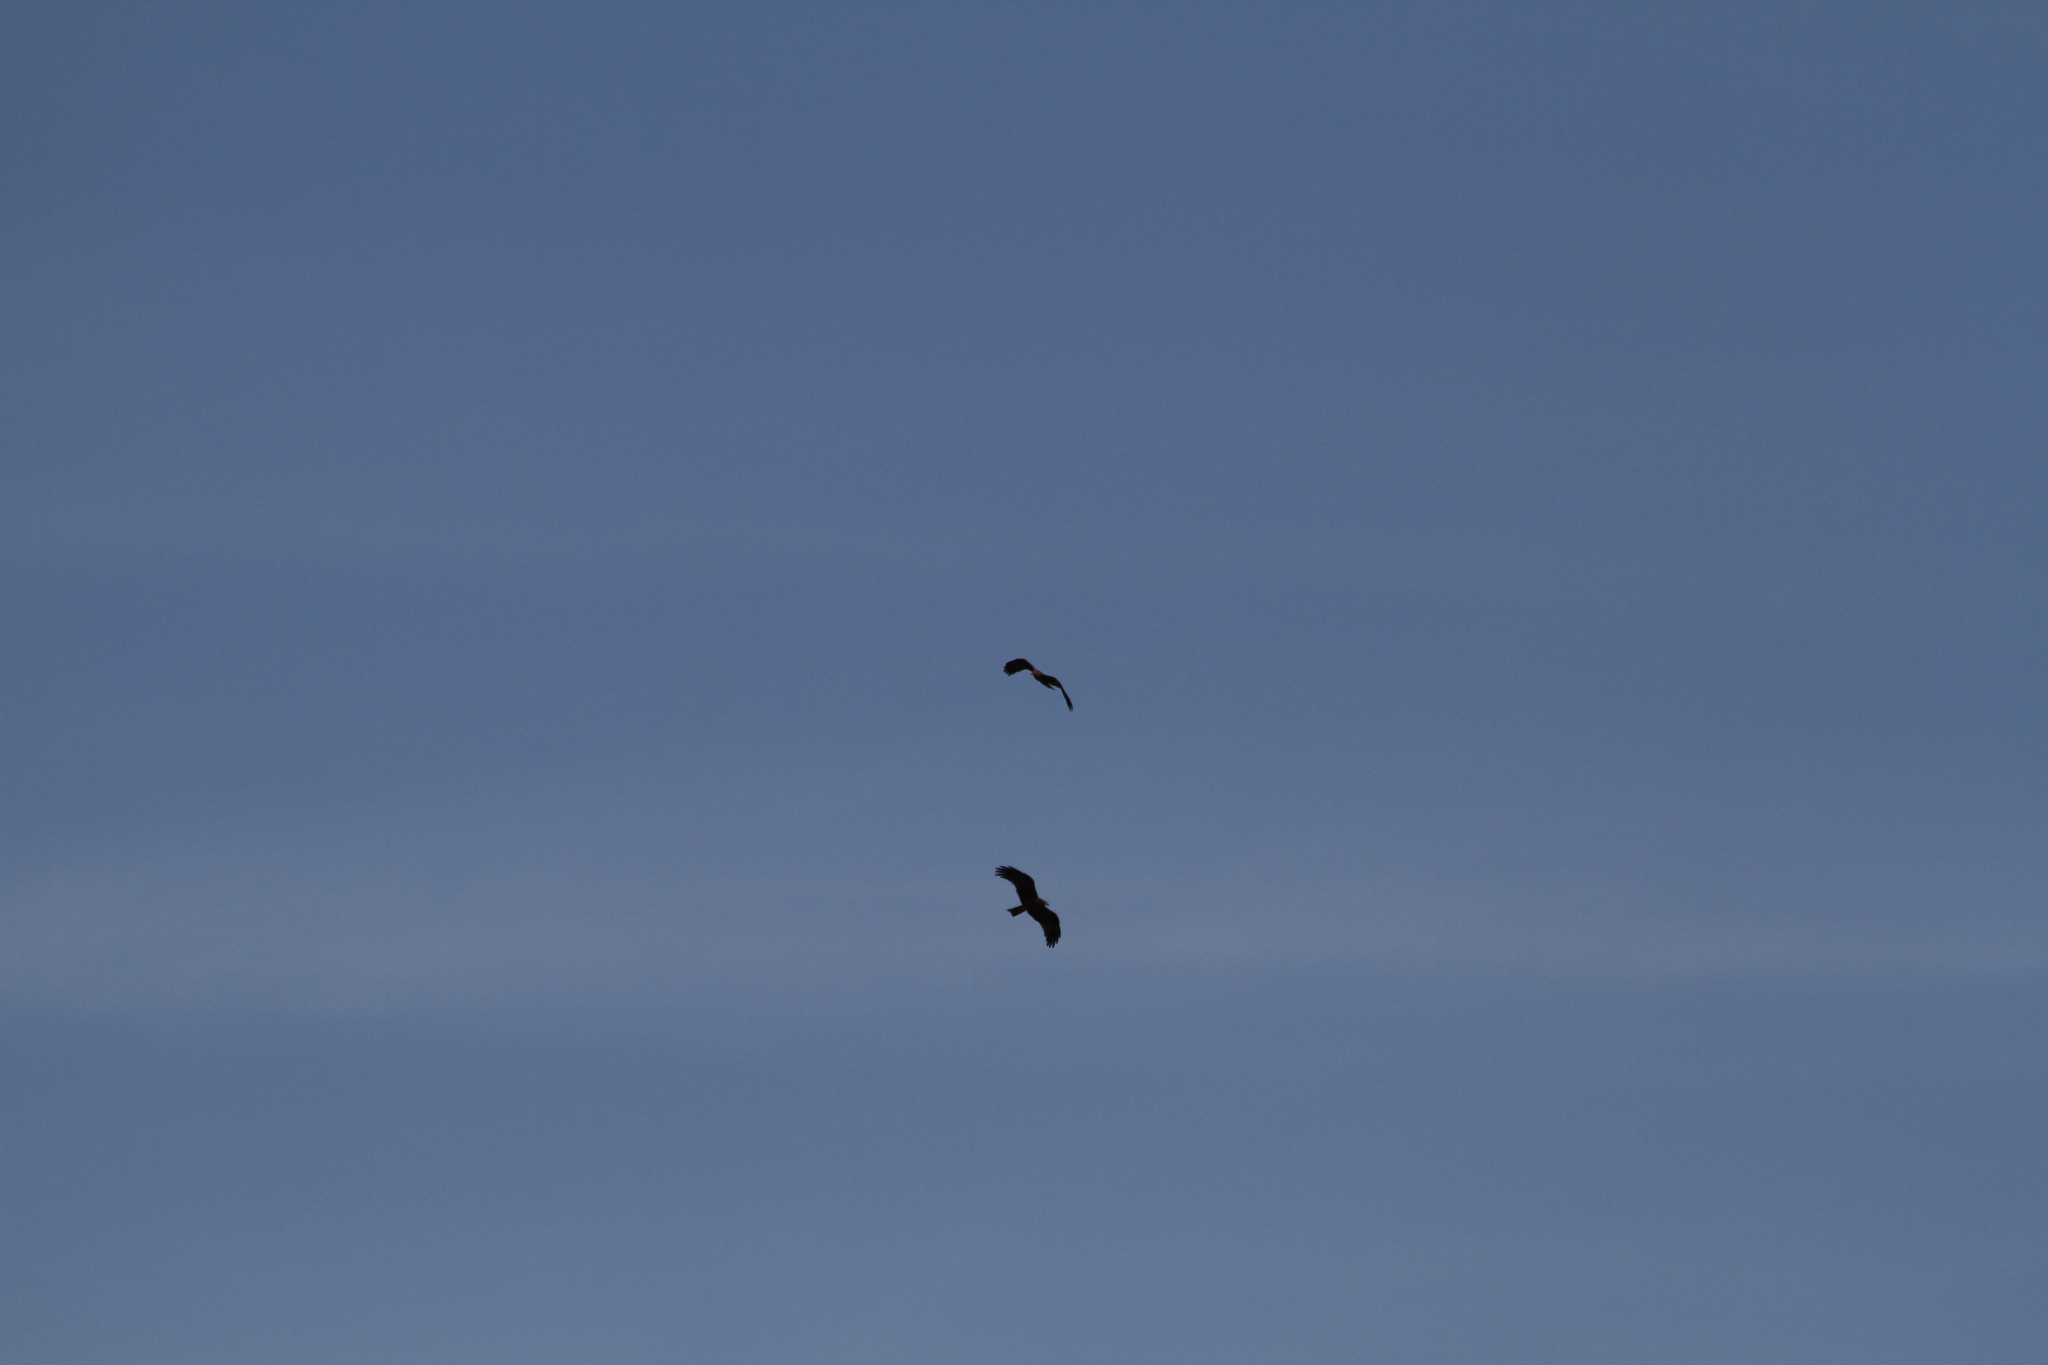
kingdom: Animalia
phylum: Chordata
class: Aves
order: Accipitriformes
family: Accipitridae
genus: Milvus
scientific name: Milvus migrans
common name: Black kite
